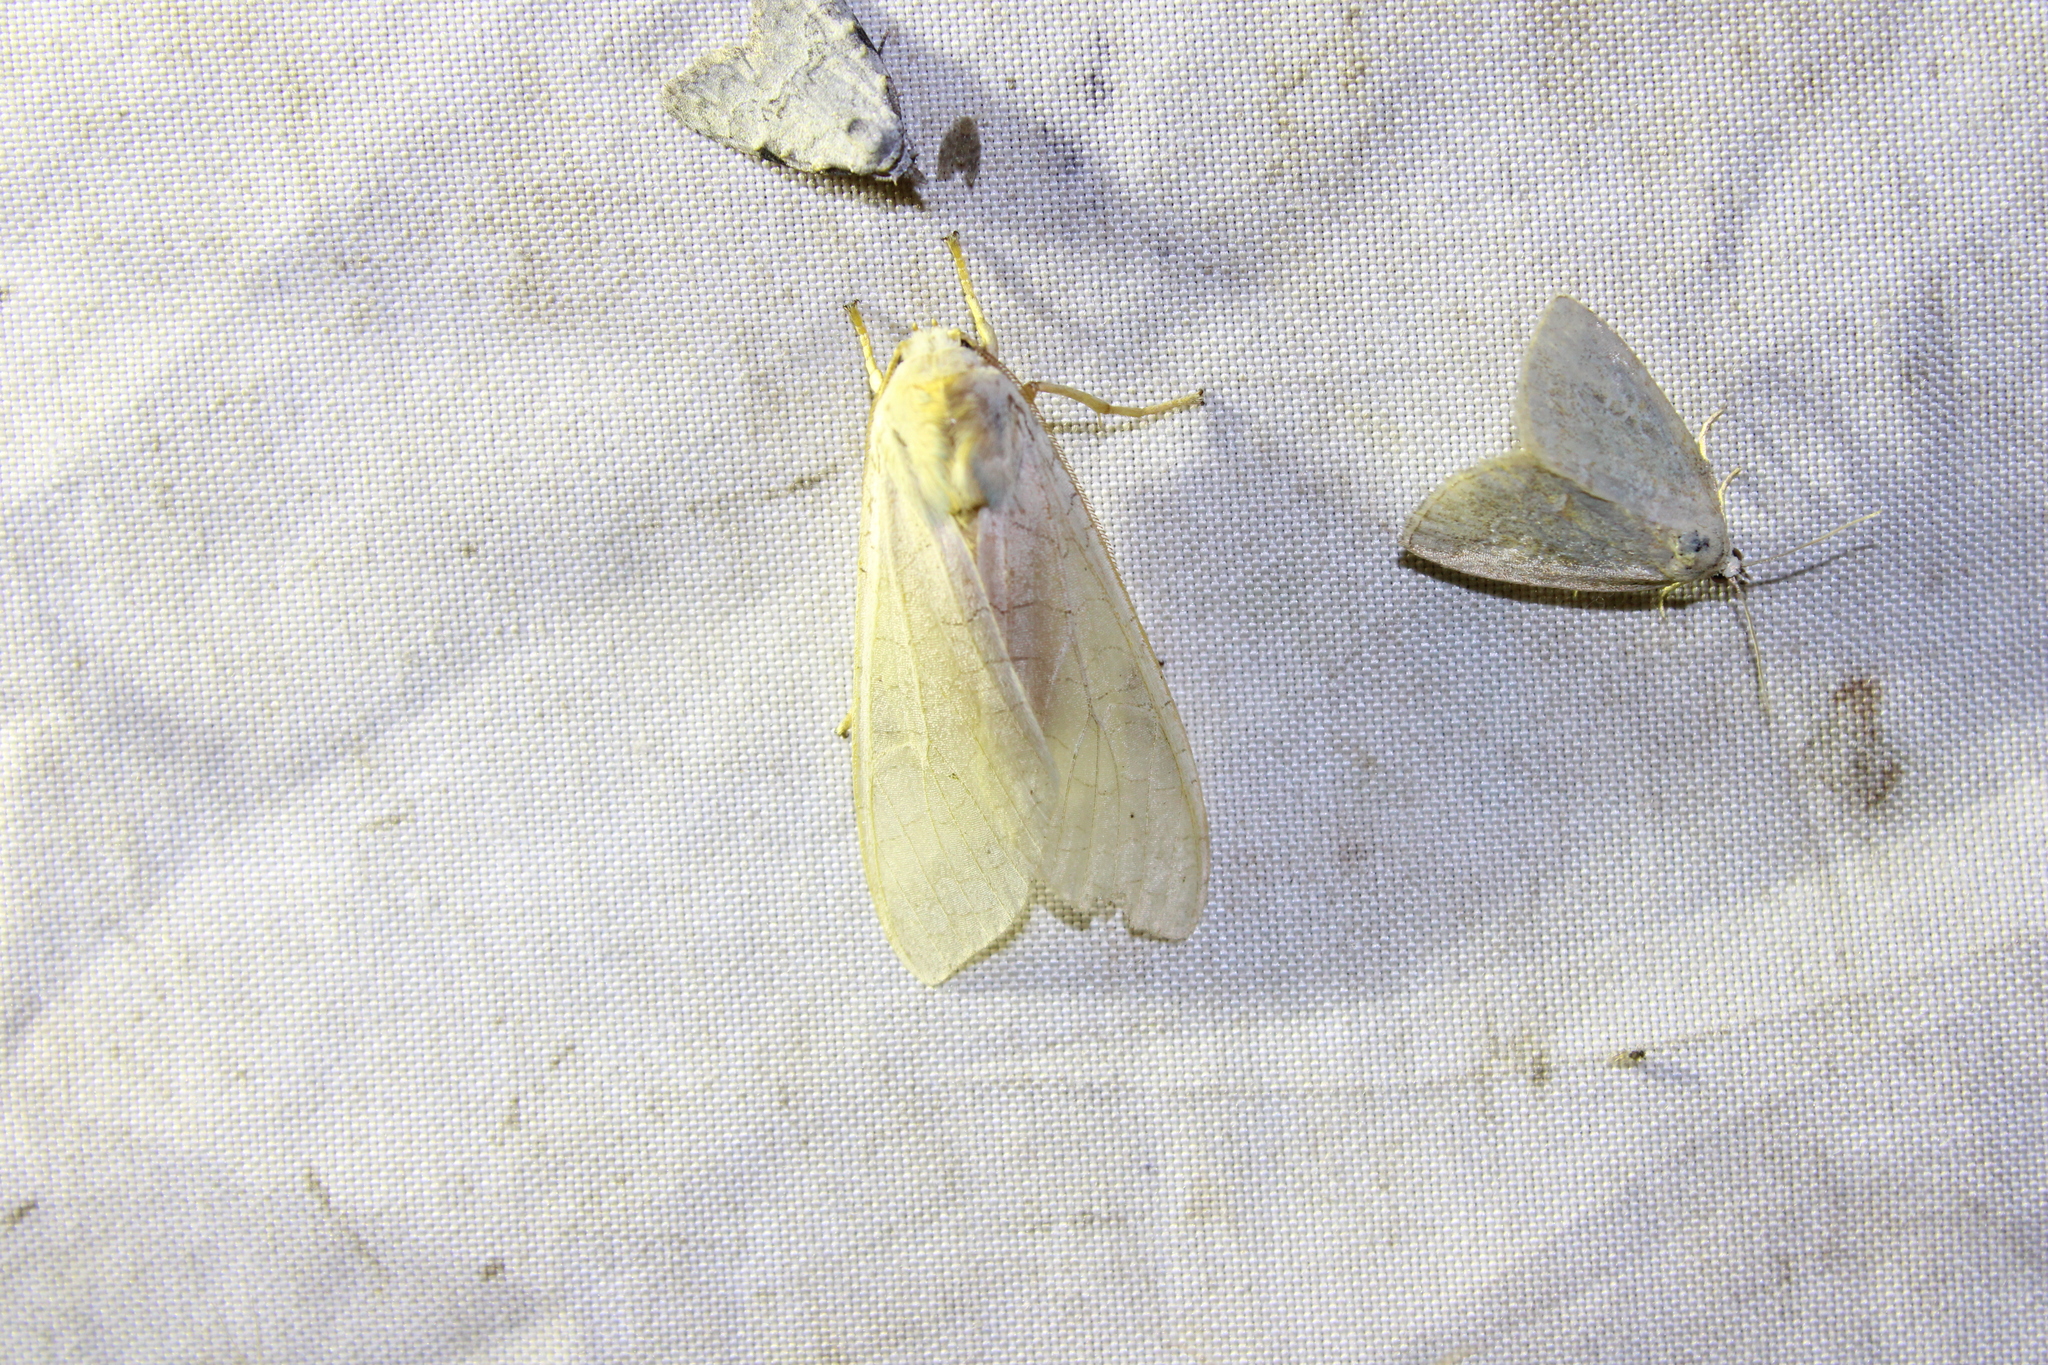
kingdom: Animalia
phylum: Arthropoda
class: Insecta
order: Lepidoptera
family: Erebidae
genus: Halysidota
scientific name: Halysidota
